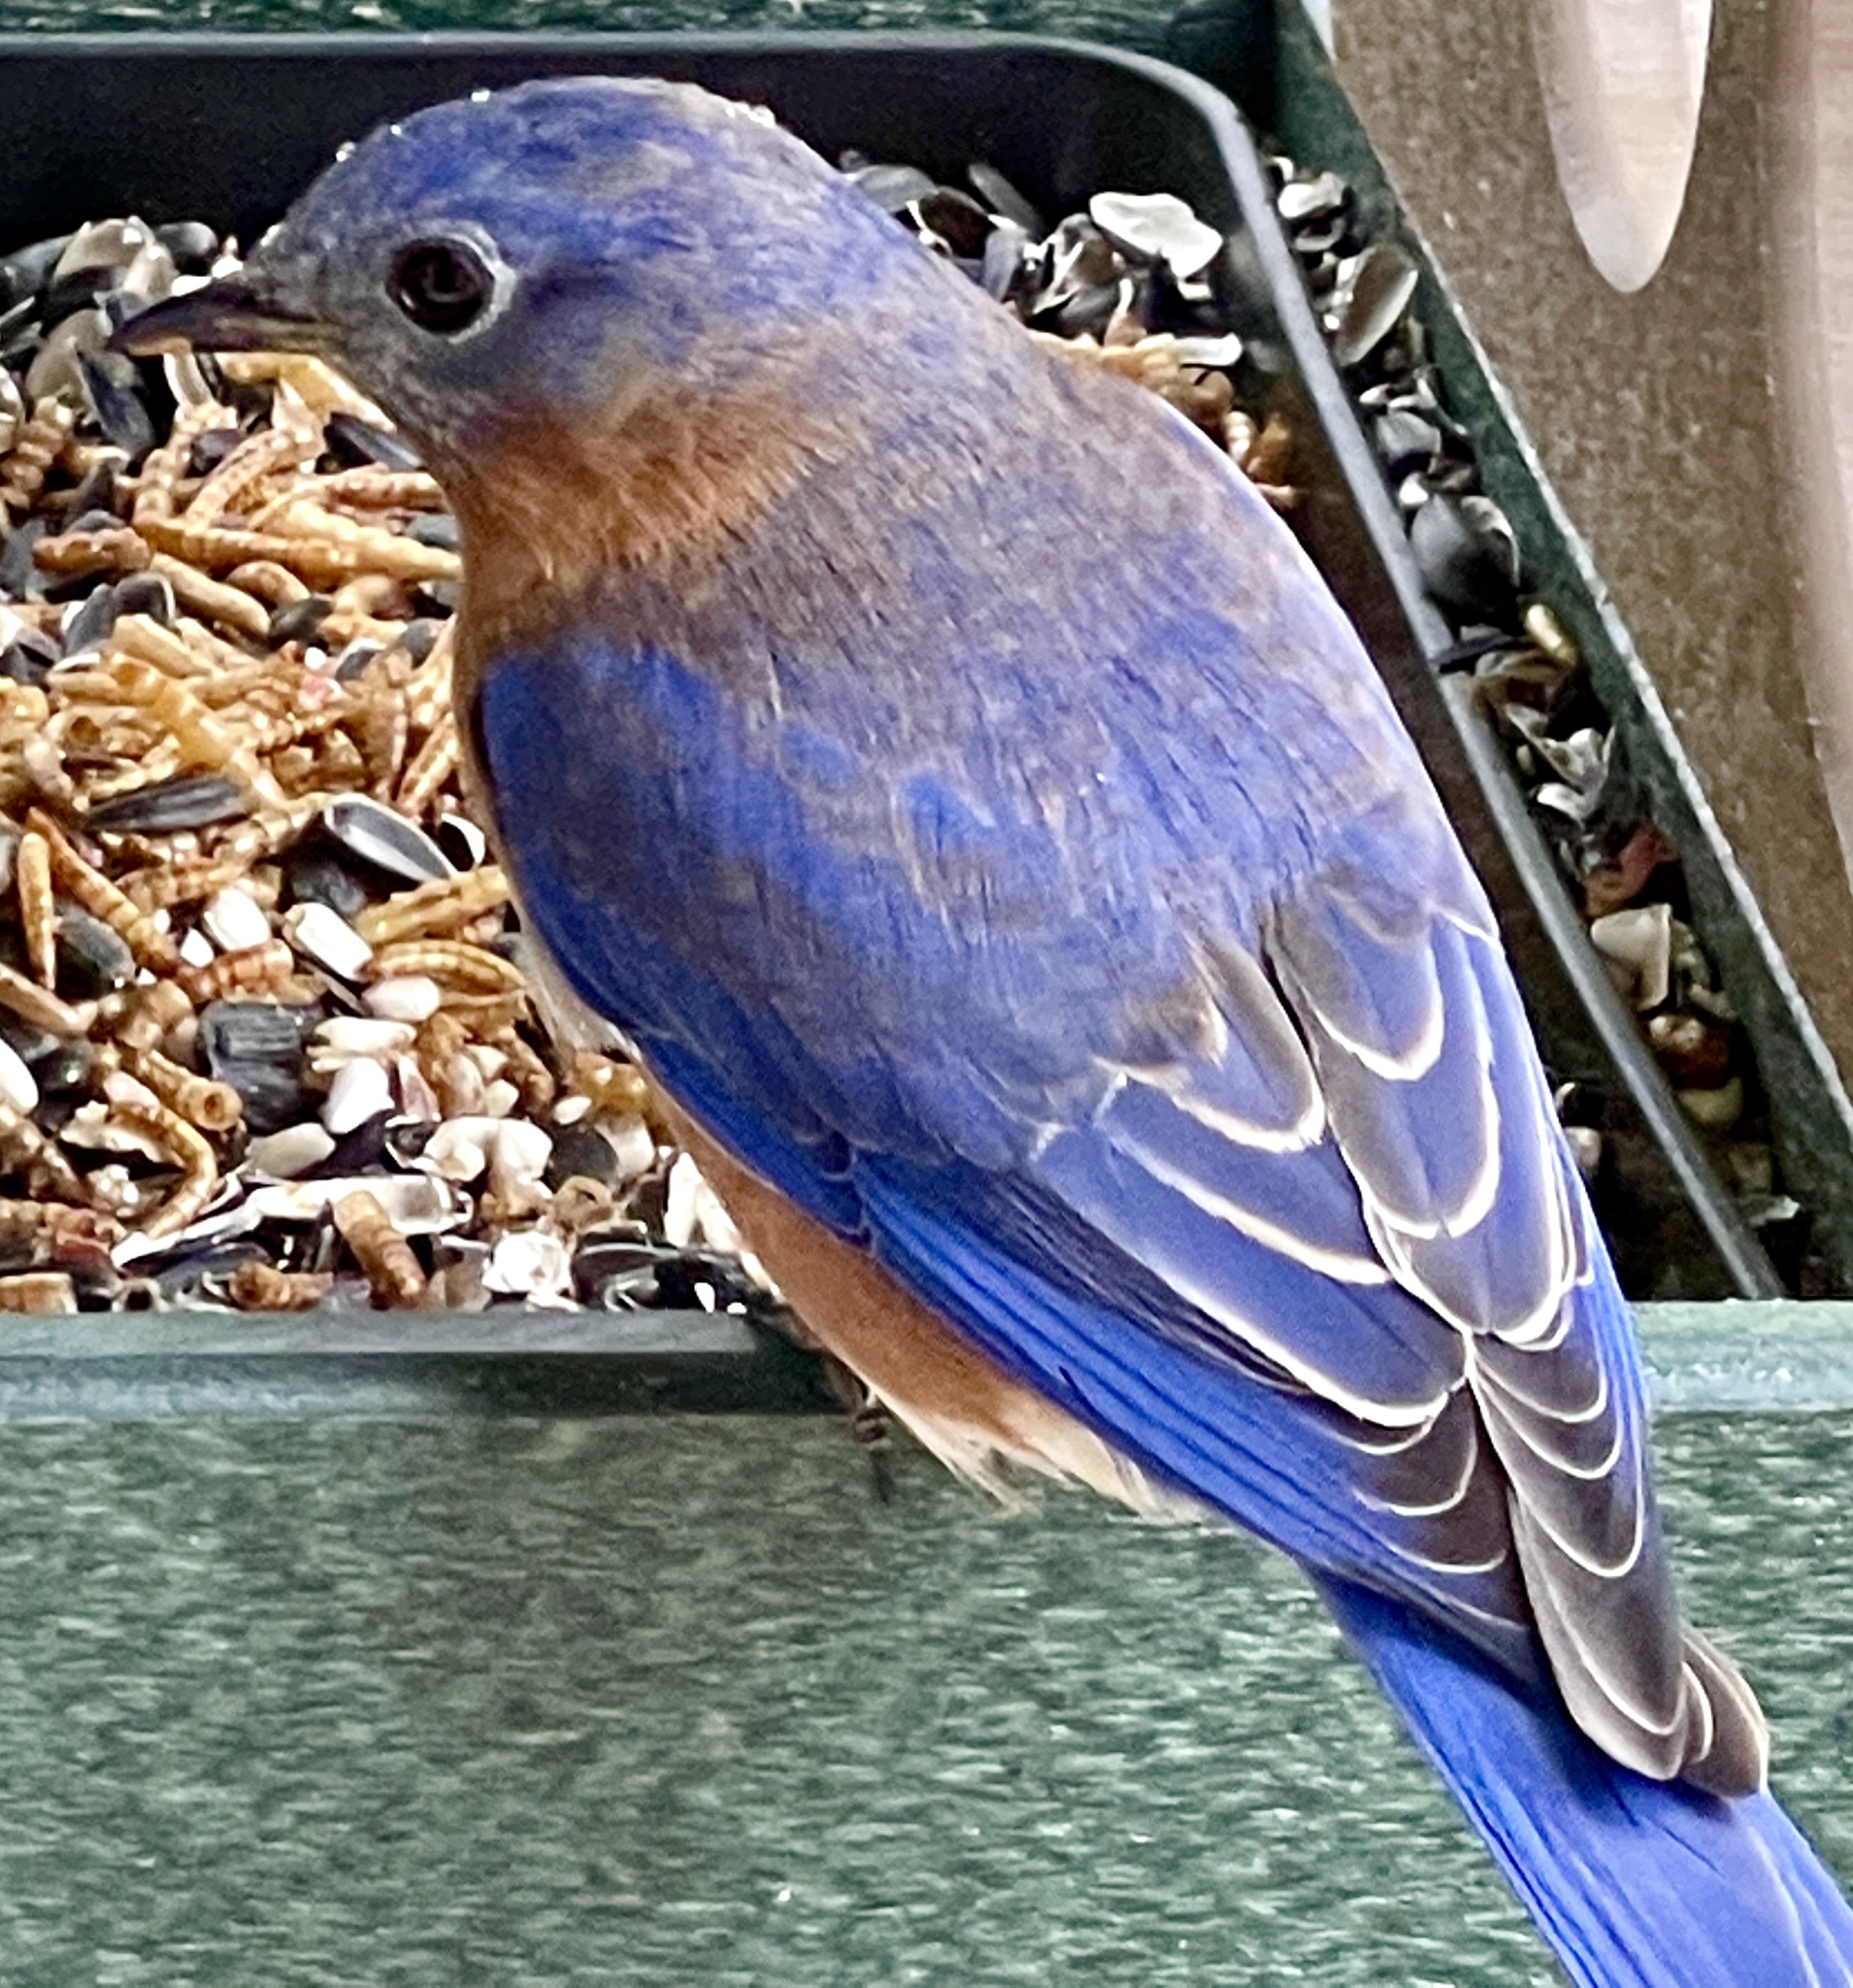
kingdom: Animalia
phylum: Chordata
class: Aves
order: Passeriformes
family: Turdidae
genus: Sialia
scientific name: Sialia sialis
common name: Eastern bluebird
